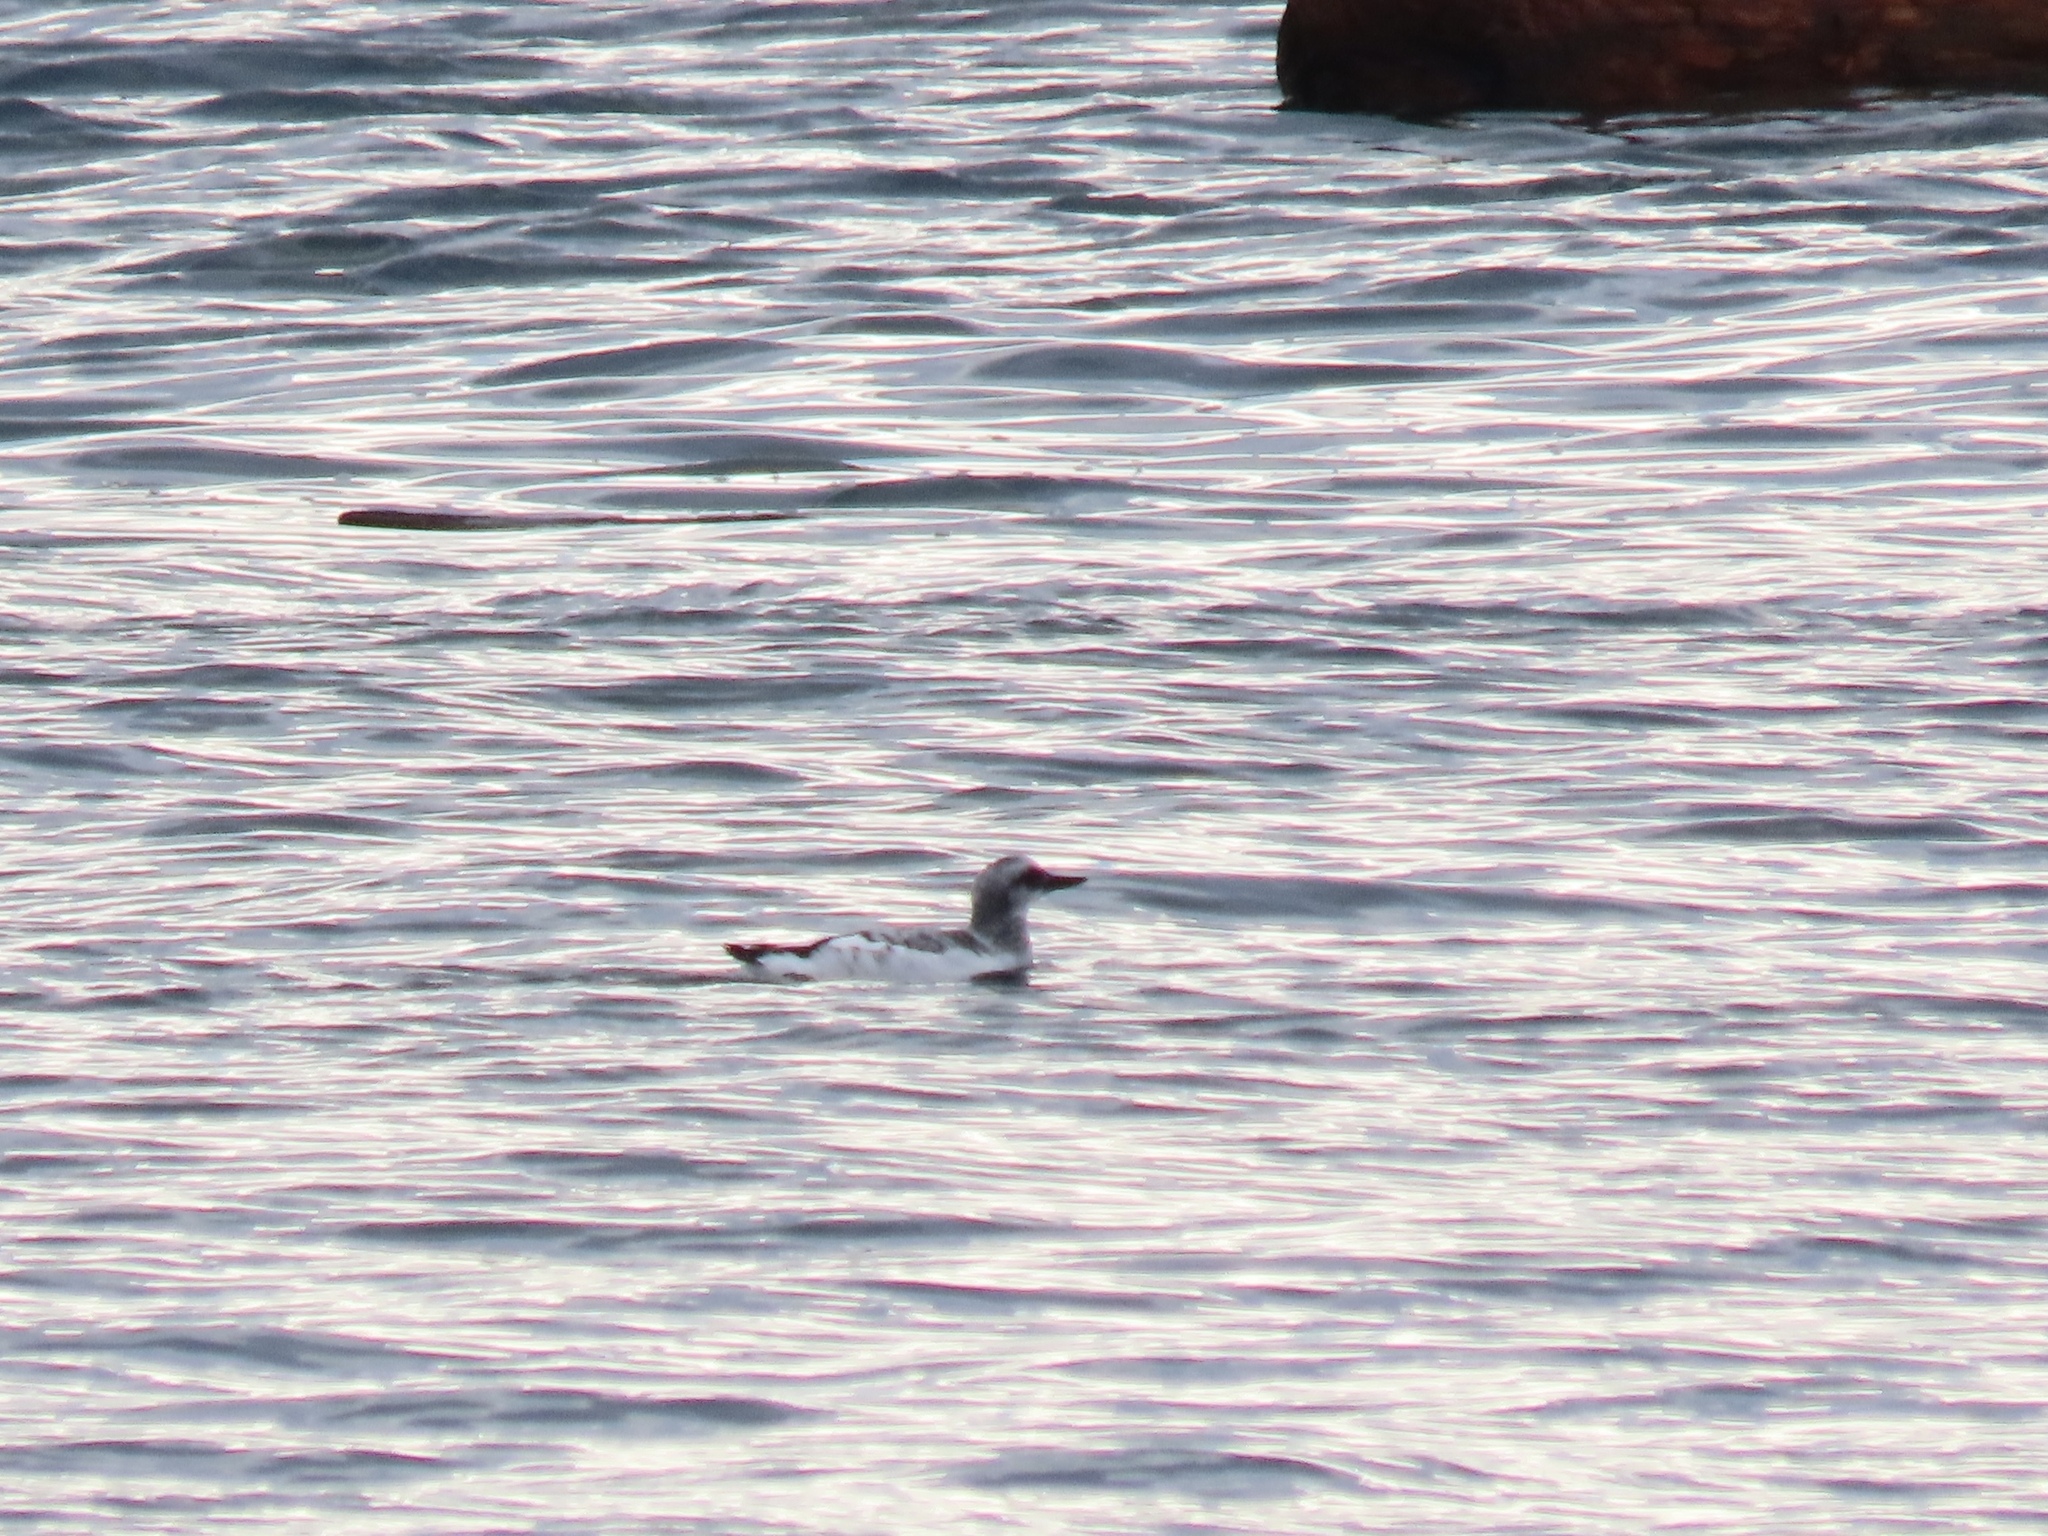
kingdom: Animalia
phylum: Chordata
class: Aves
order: Charadriiformes
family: Alcidae
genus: Cepphus
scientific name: Cepphus columba
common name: Pigeon guillemot
